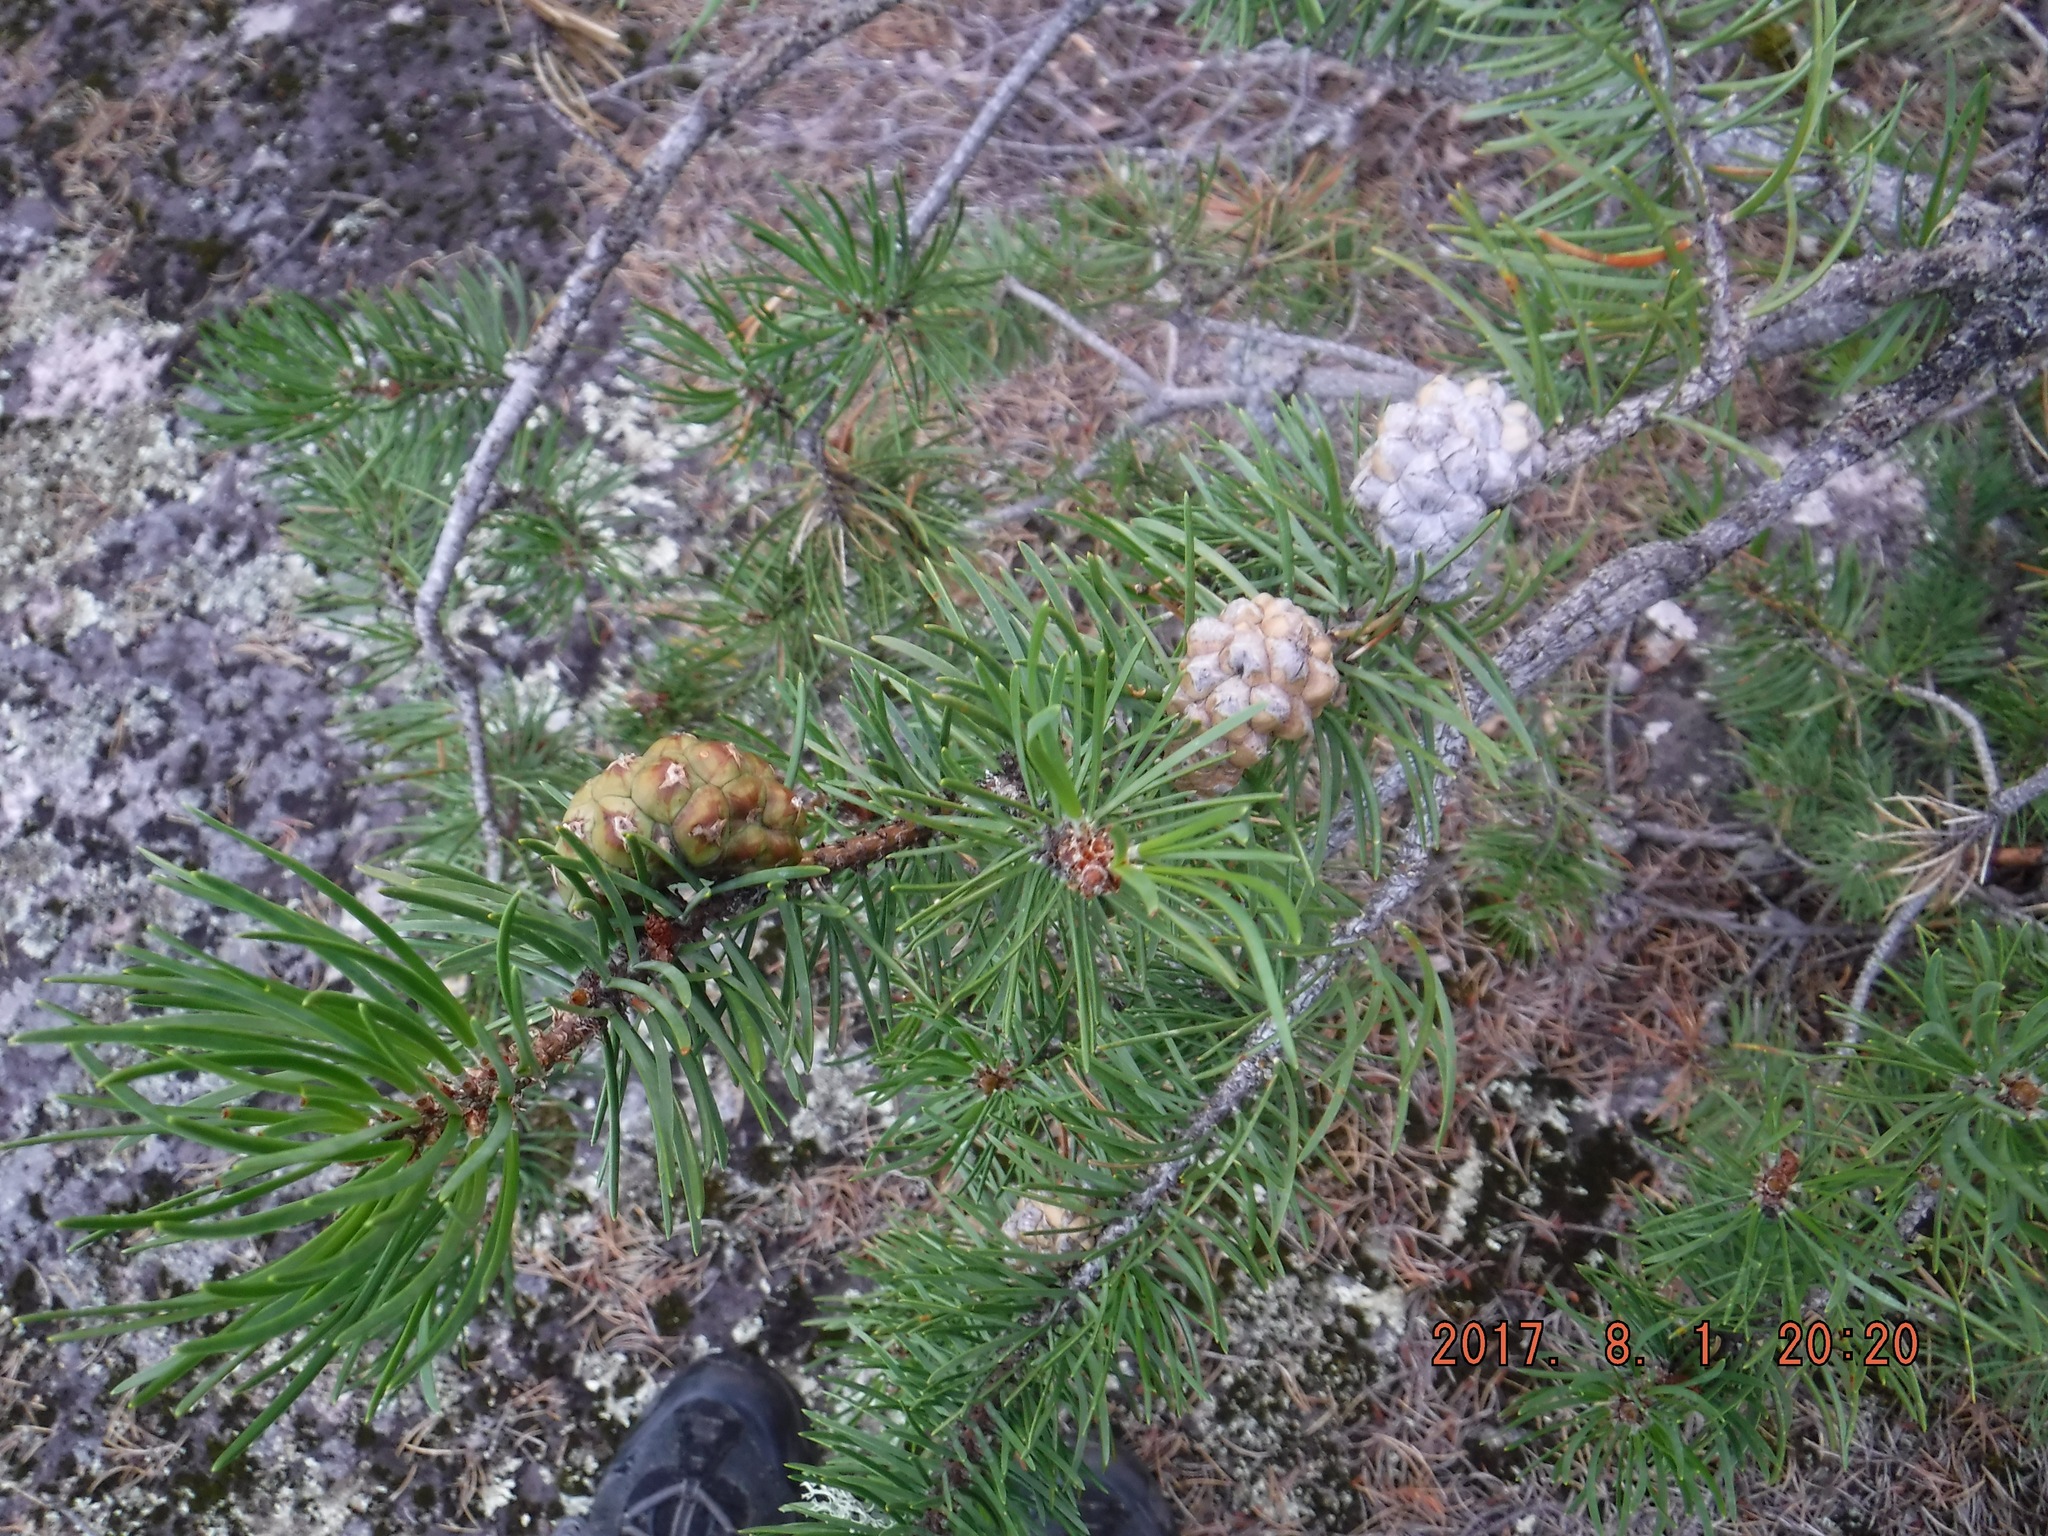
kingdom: Plantae
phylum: Tracheophyta
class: Pinopsida
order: Pinales
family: Pinaceae
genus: Pinus
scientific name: Pinus banksiana
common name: Jack pine
